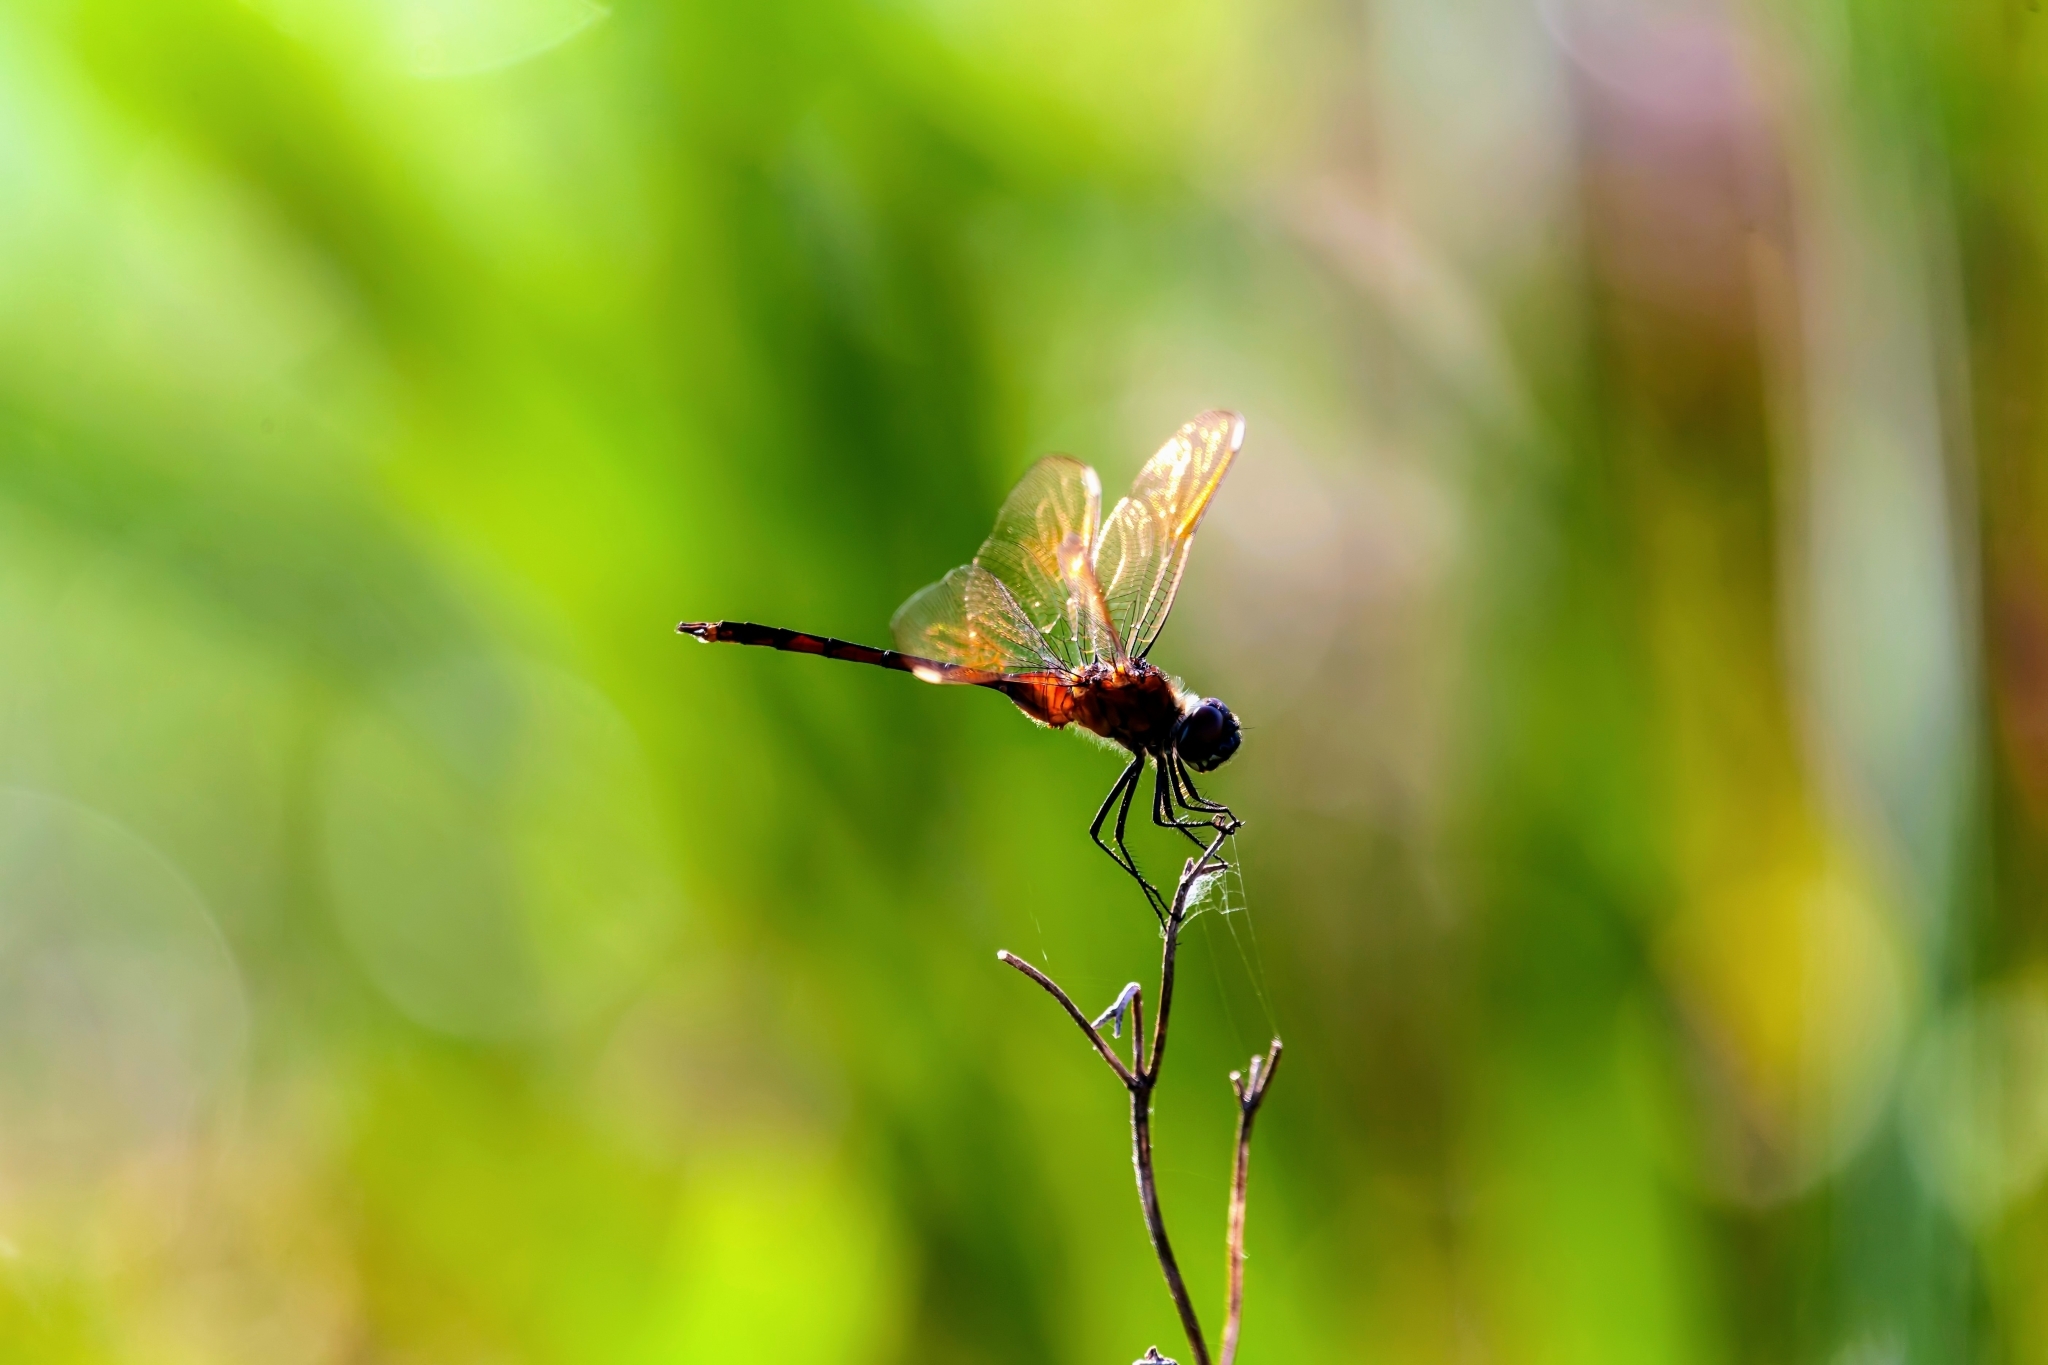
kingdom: Animalia
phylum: Arthropoda
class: Insecta
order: Odonata
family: Libellulidae
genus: Brachymesia
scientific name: Brachymesia gravida
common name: Four-spotted pennant
